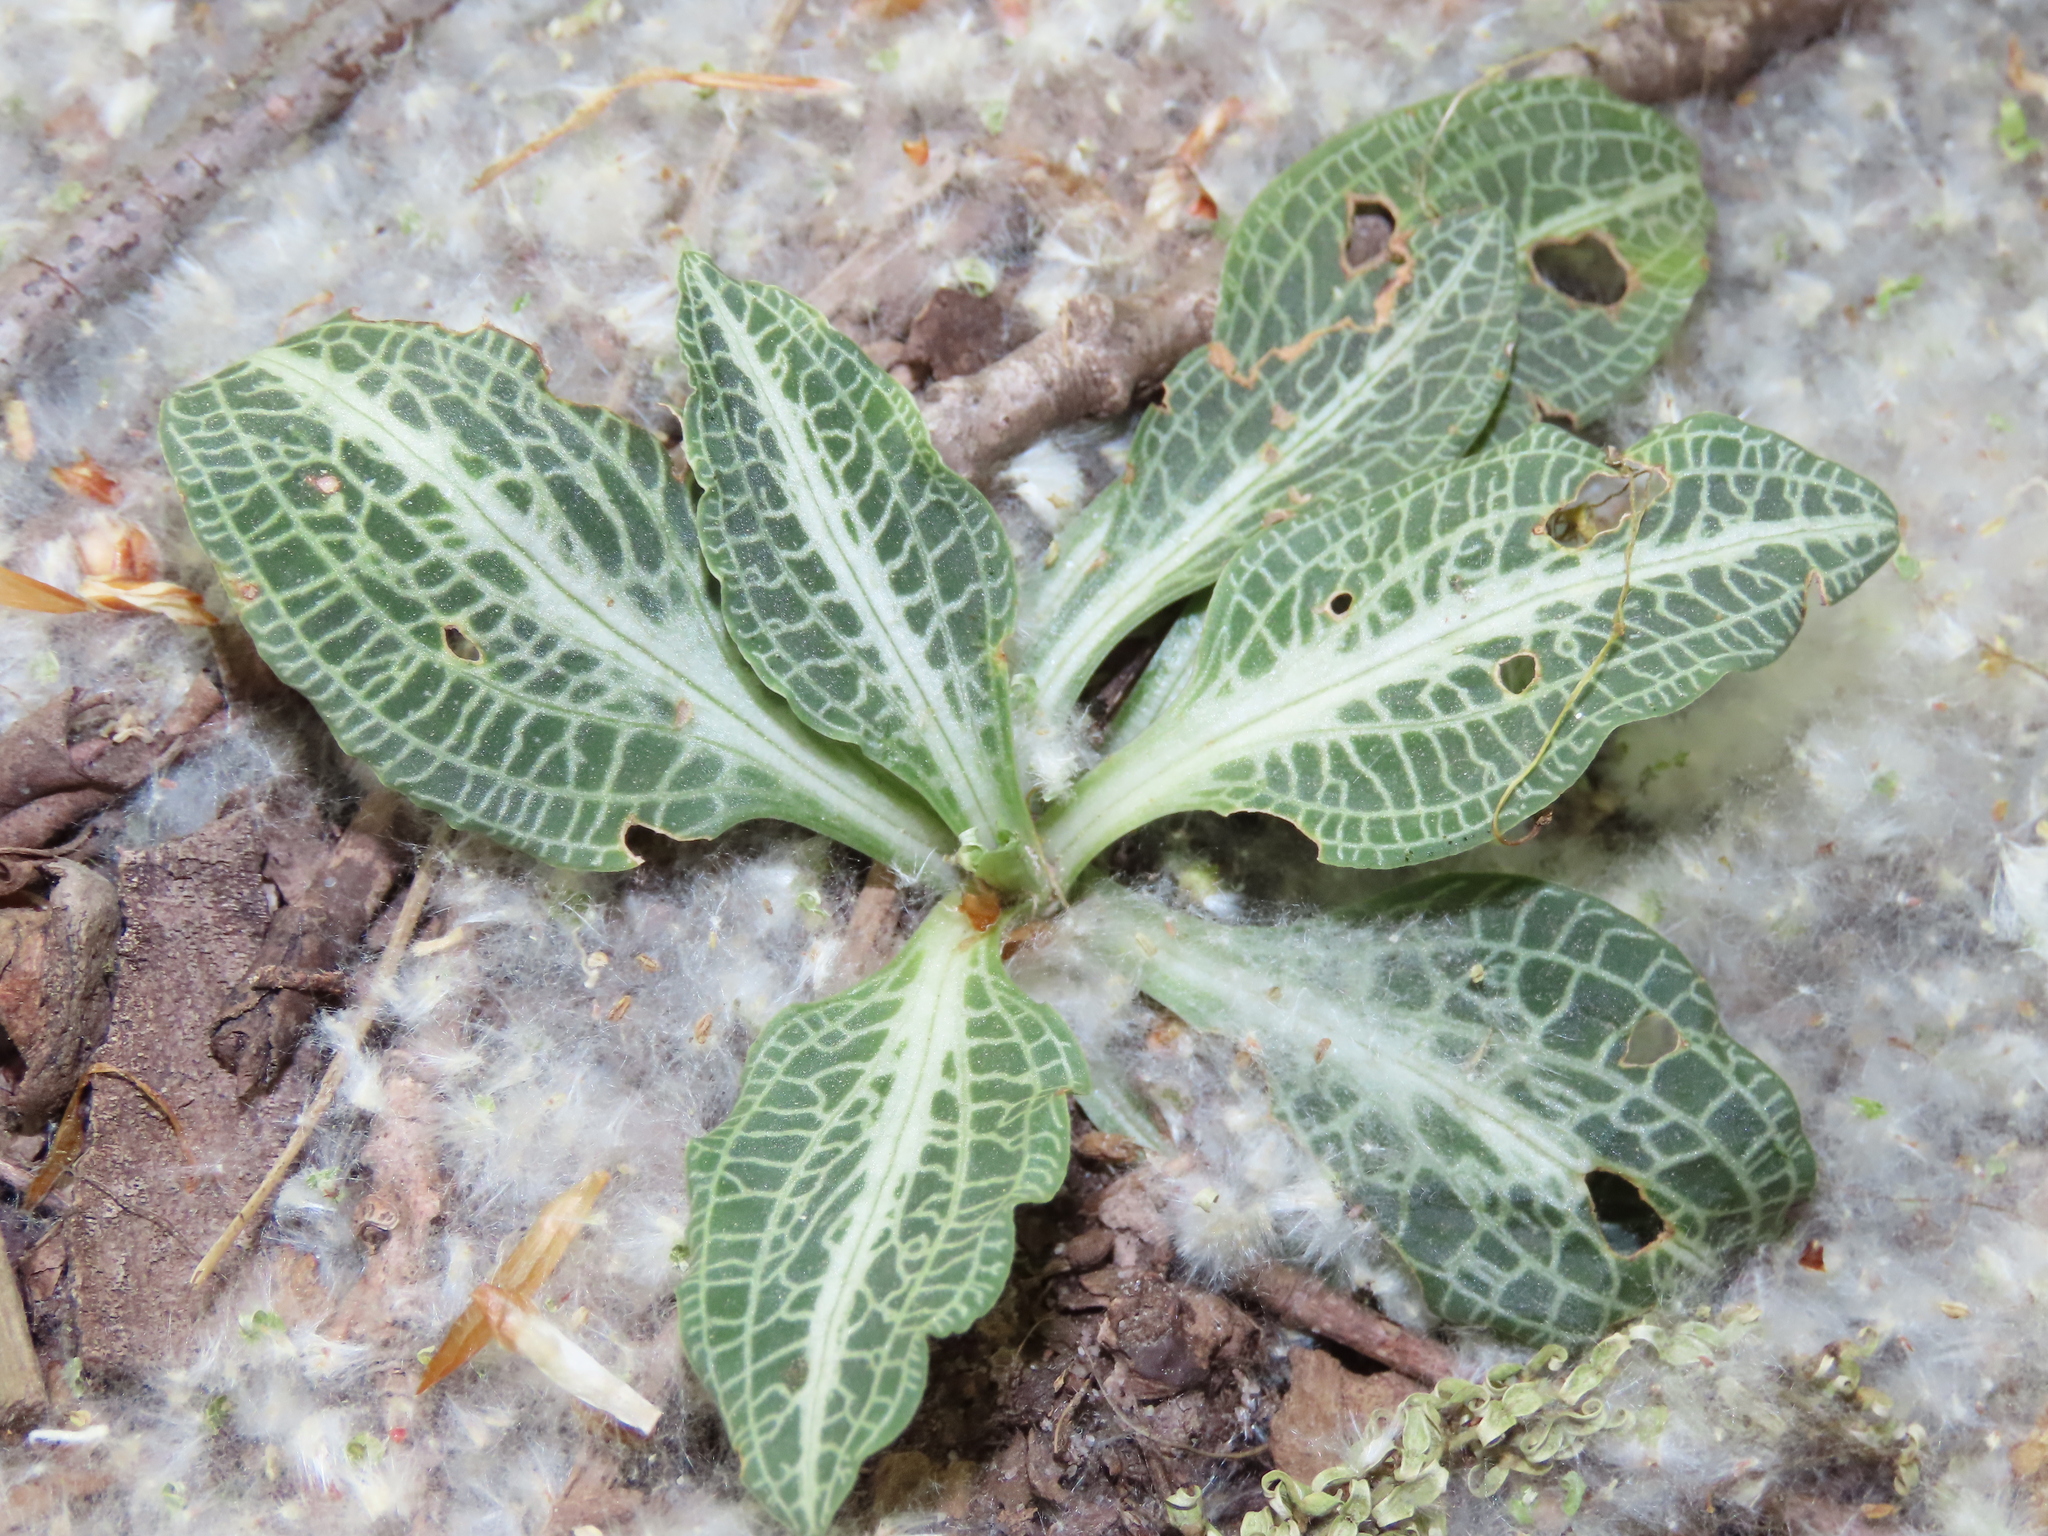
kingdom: Plantae
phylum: Tracheophyta
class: Liliopsida
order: Asparagales
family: Orchidaceae
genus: Goodyera
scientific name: Goodyera pubescens
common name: Downy rattlesnake-plantain
